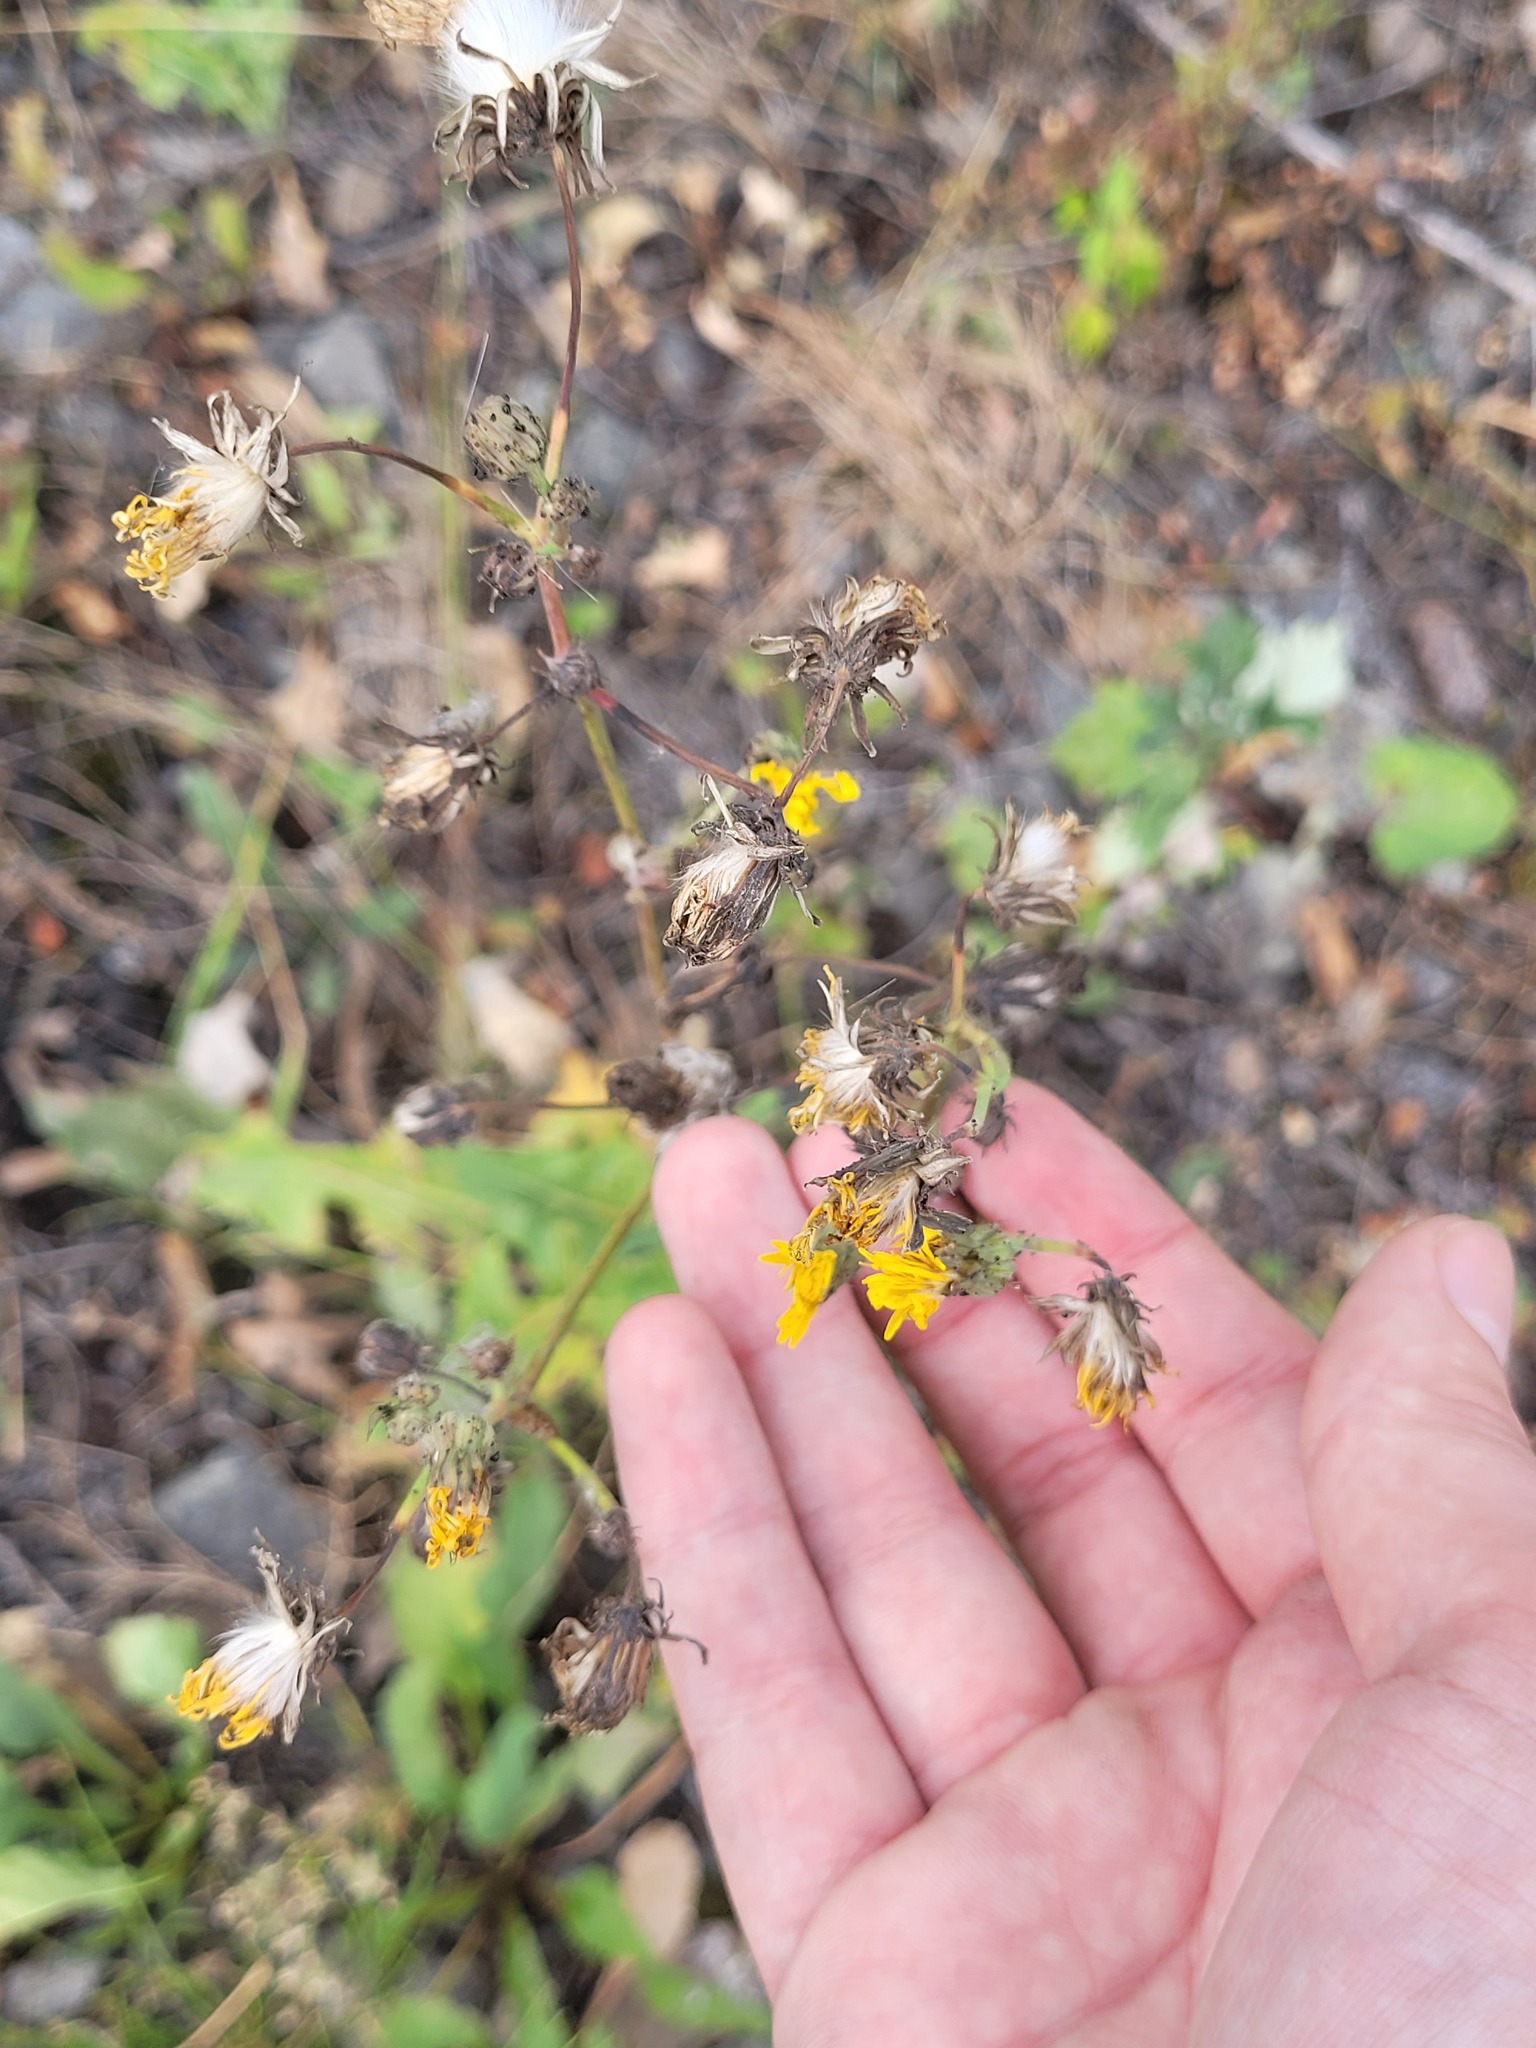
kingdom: Plantae
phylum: Tracheophyta
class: Magnoliopsida
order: Asterales
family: Asteraceae
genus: Sonchus
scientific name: Sonchus arvensis
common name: Perennial sow-thistle
